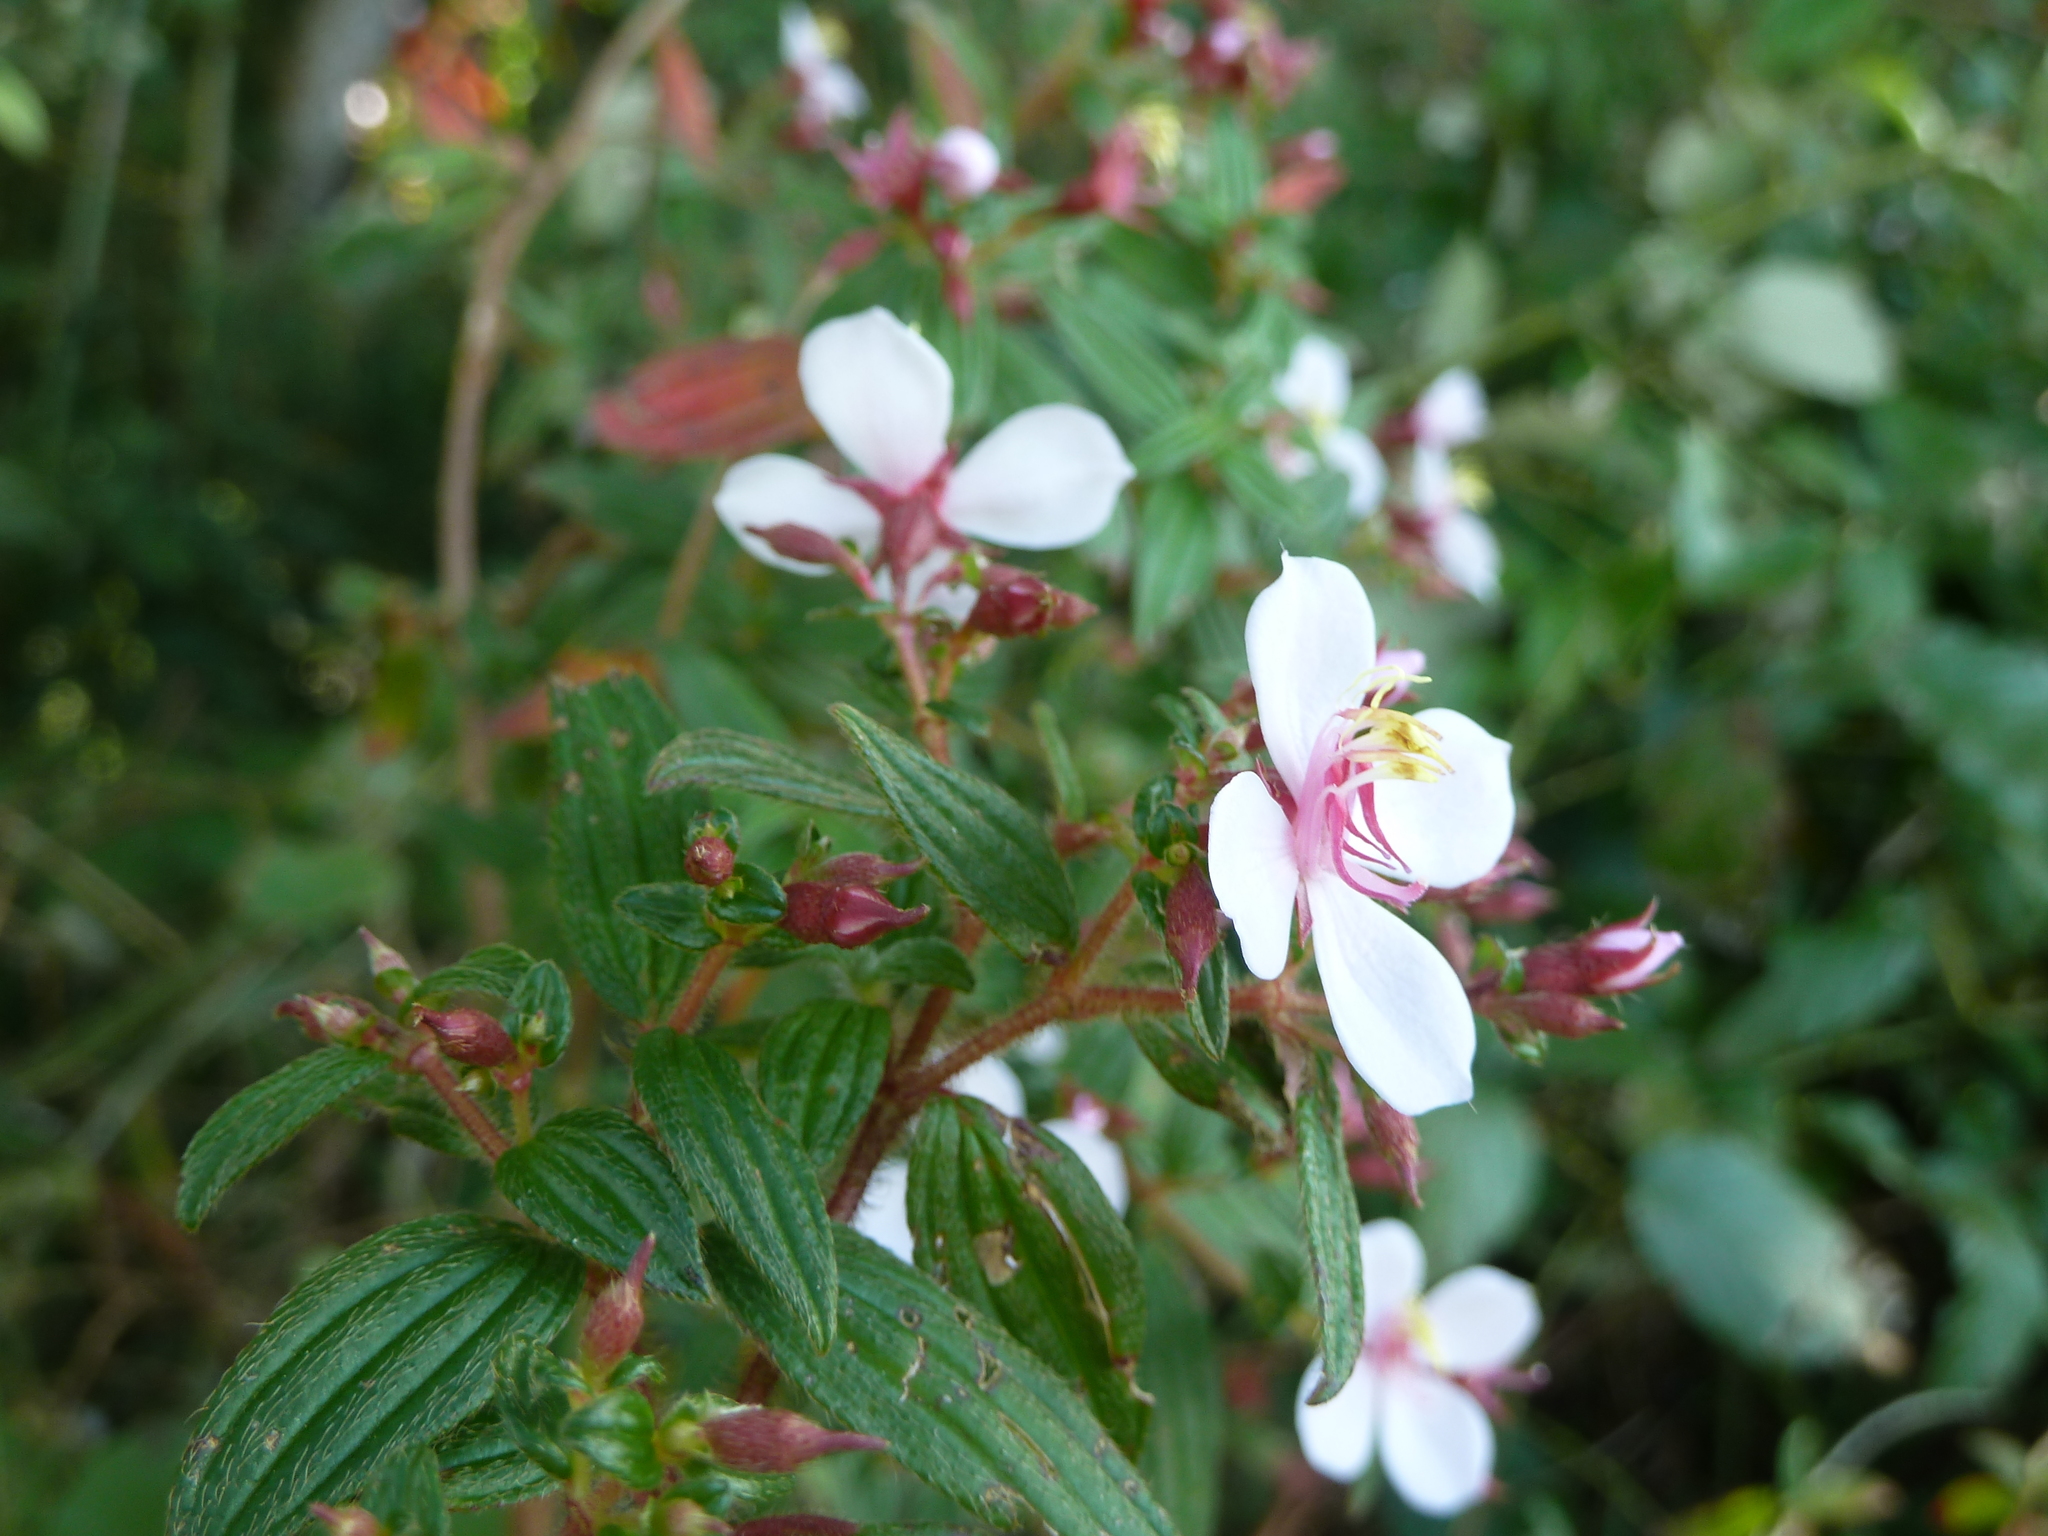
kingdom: Plantae
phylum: Tracheophyta
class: Magnoliopsida
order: Myrtales
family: Melastomataceae
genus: Monochaetum
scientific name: Monochaetum floribundum
